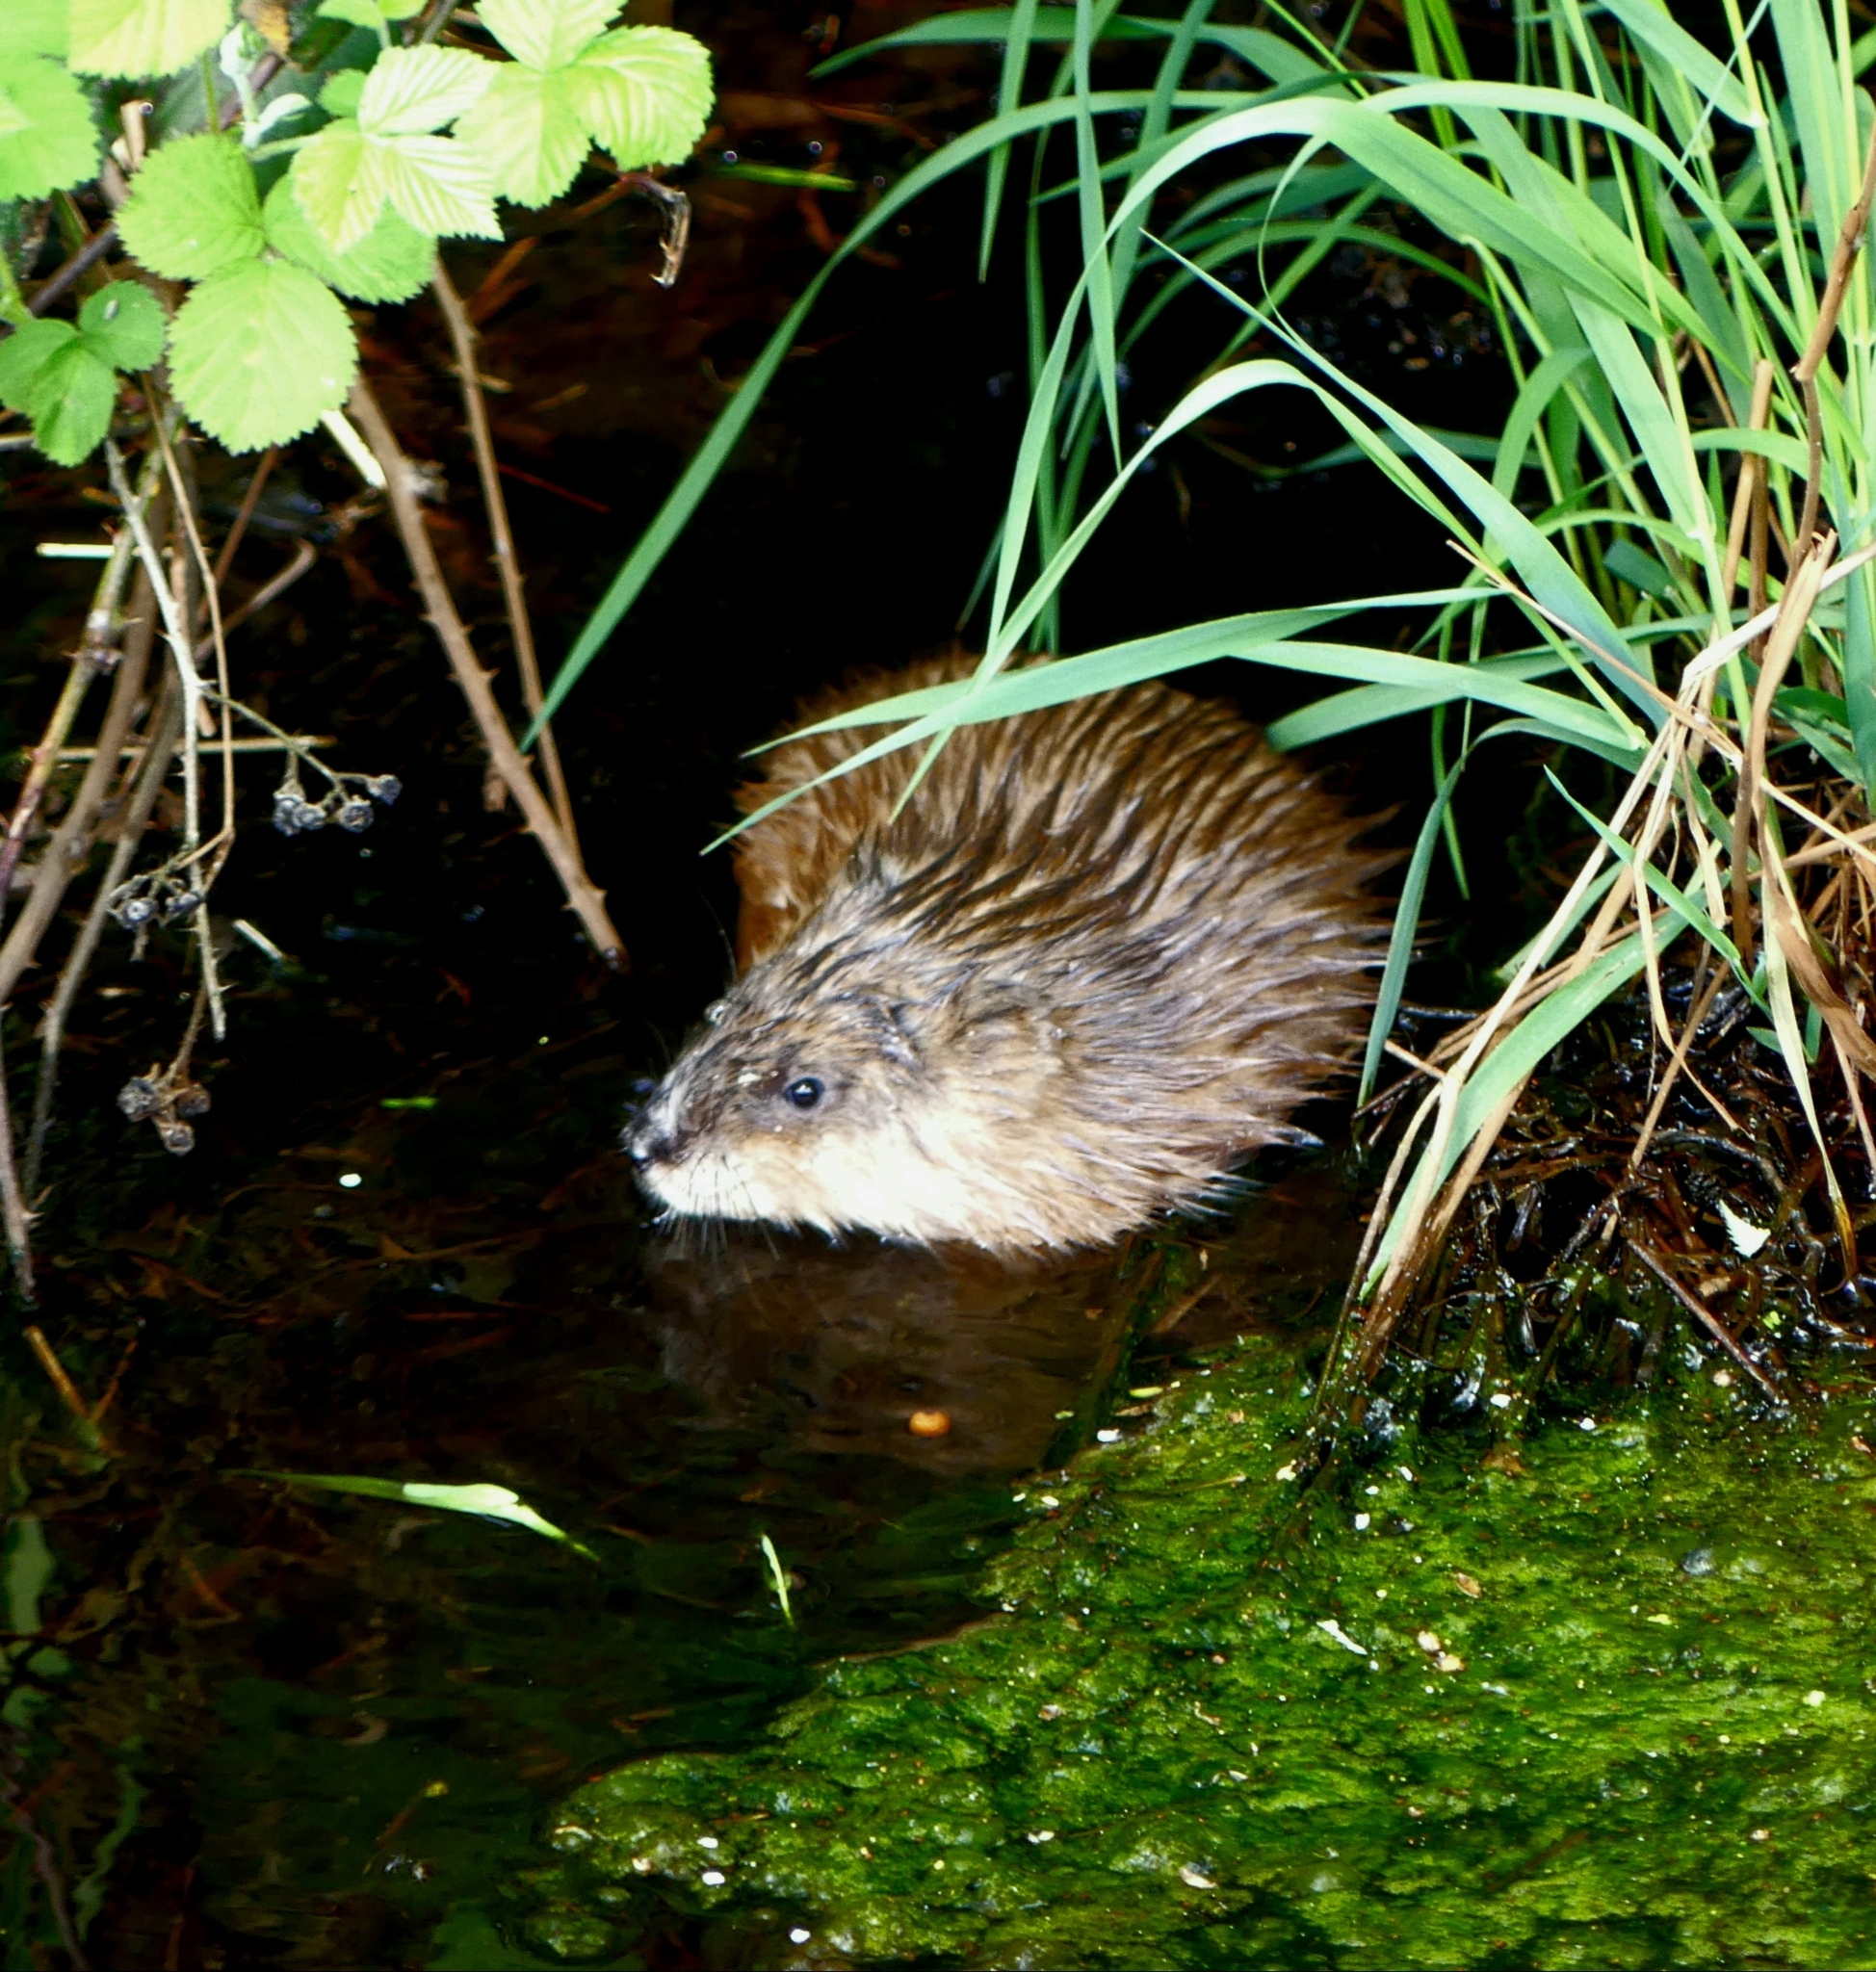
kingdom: Animalia
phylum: Chordata
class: Mammalia
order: Rodentia
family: Cricetidae
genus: Ondatra
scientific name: Ondatra zibethicus
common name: Muskrat
